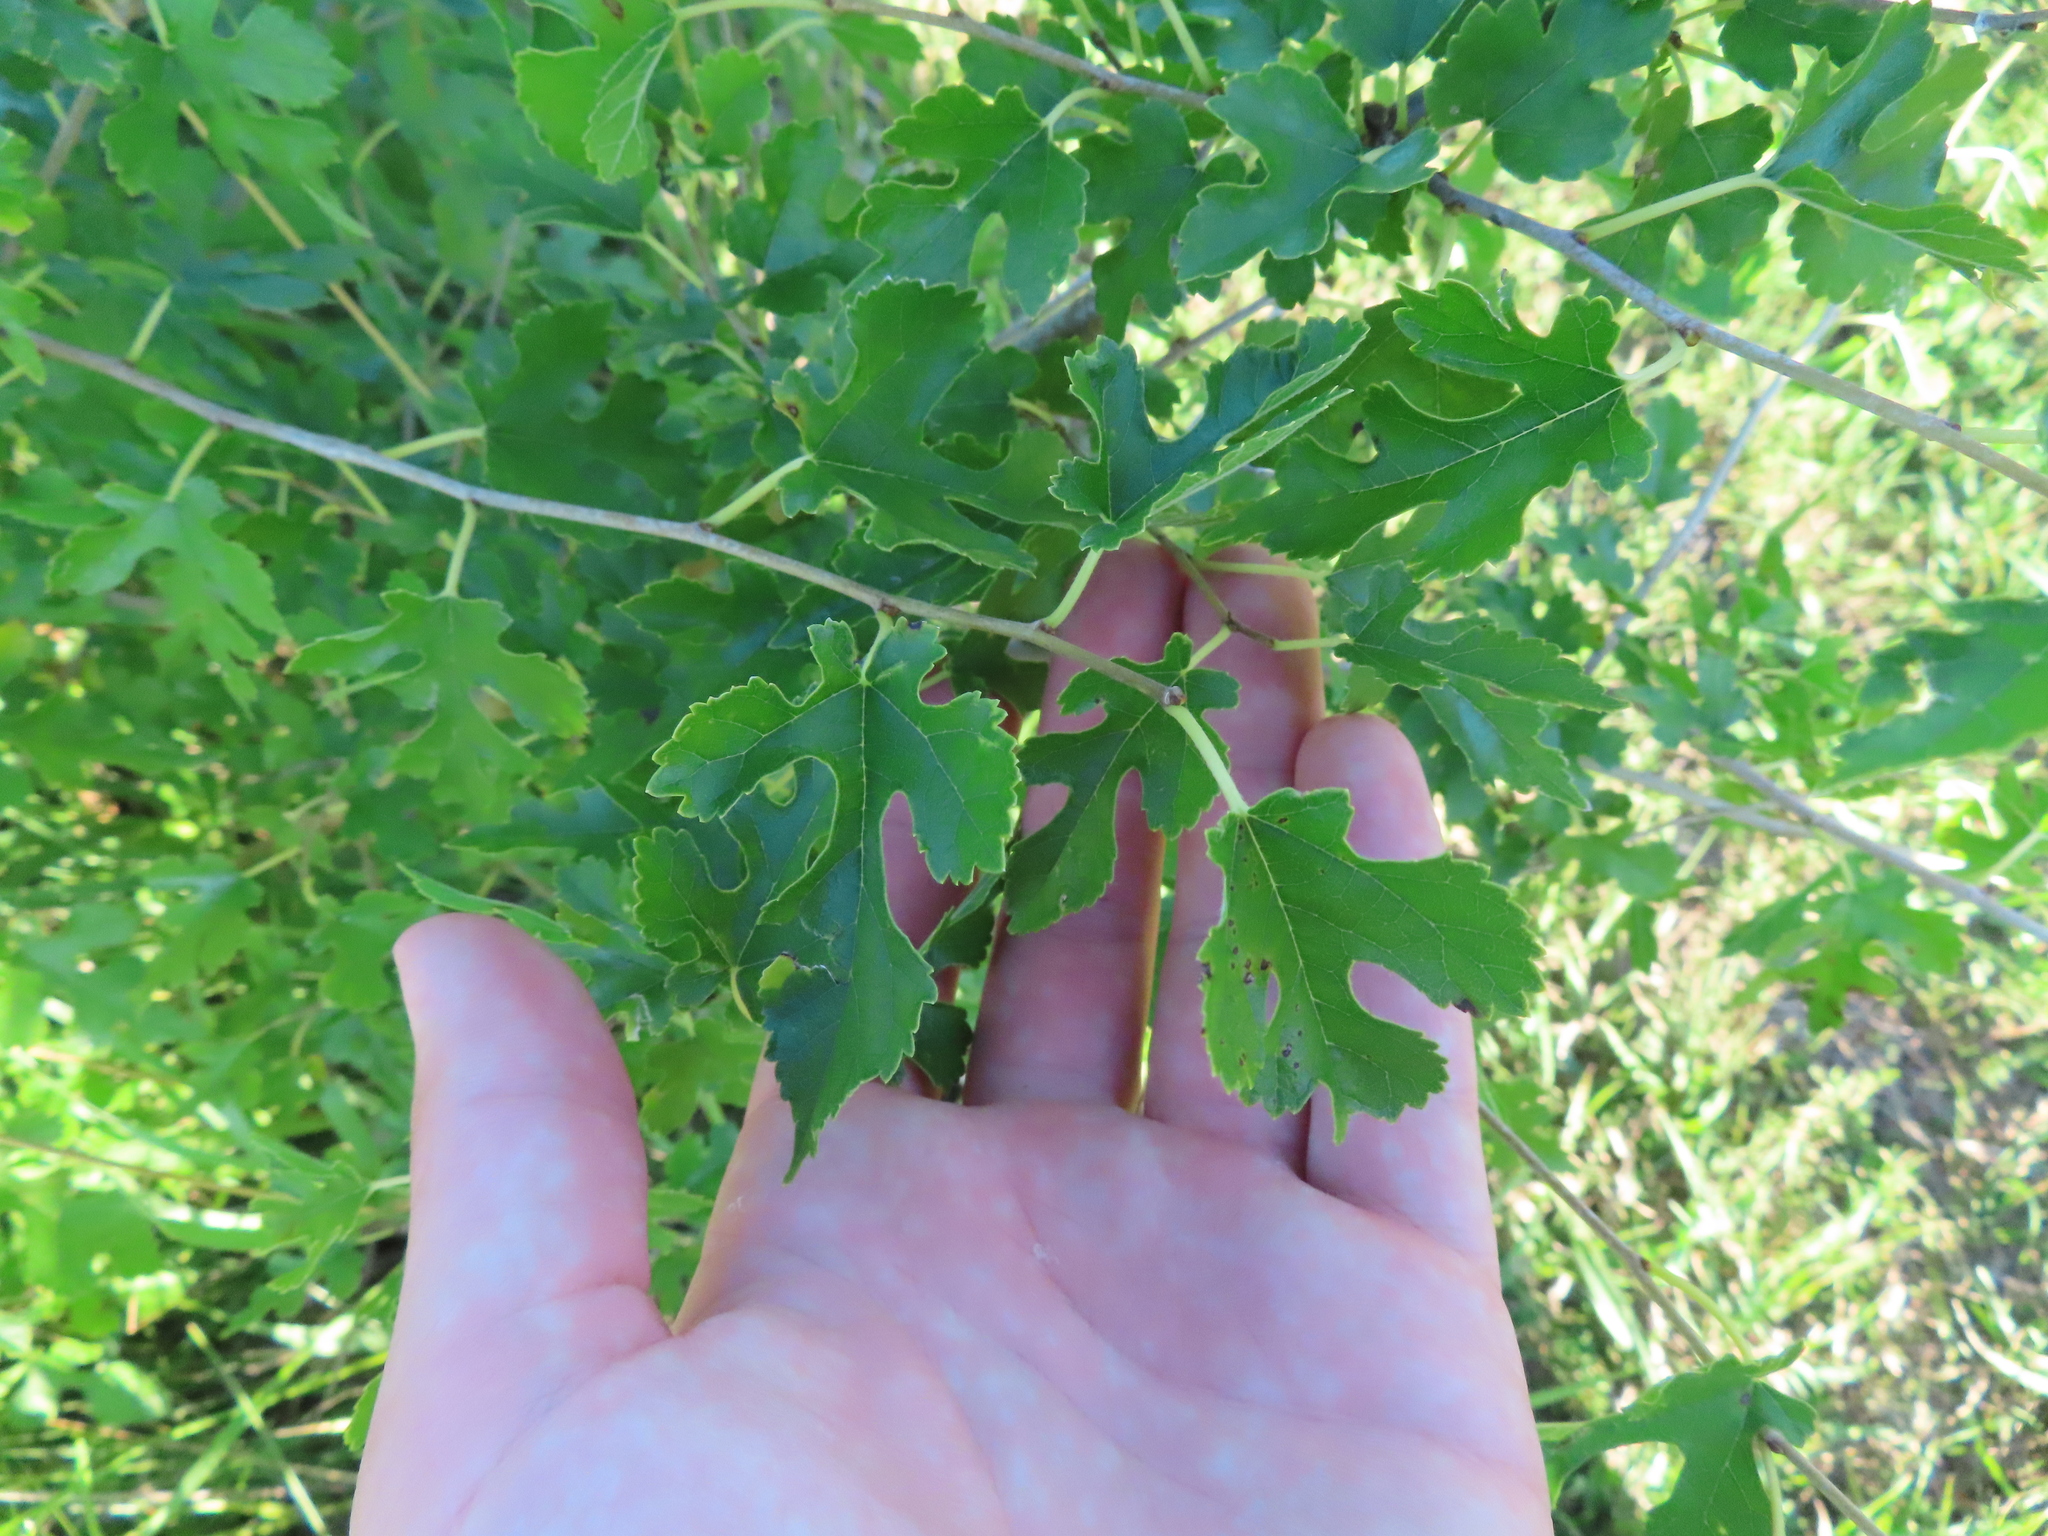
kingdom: Plantae
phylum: Tracheophyta
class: Magnoliopsida
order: Rosales
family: Moraceae
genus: Morus
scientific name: Morus alba
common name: White mulberry
